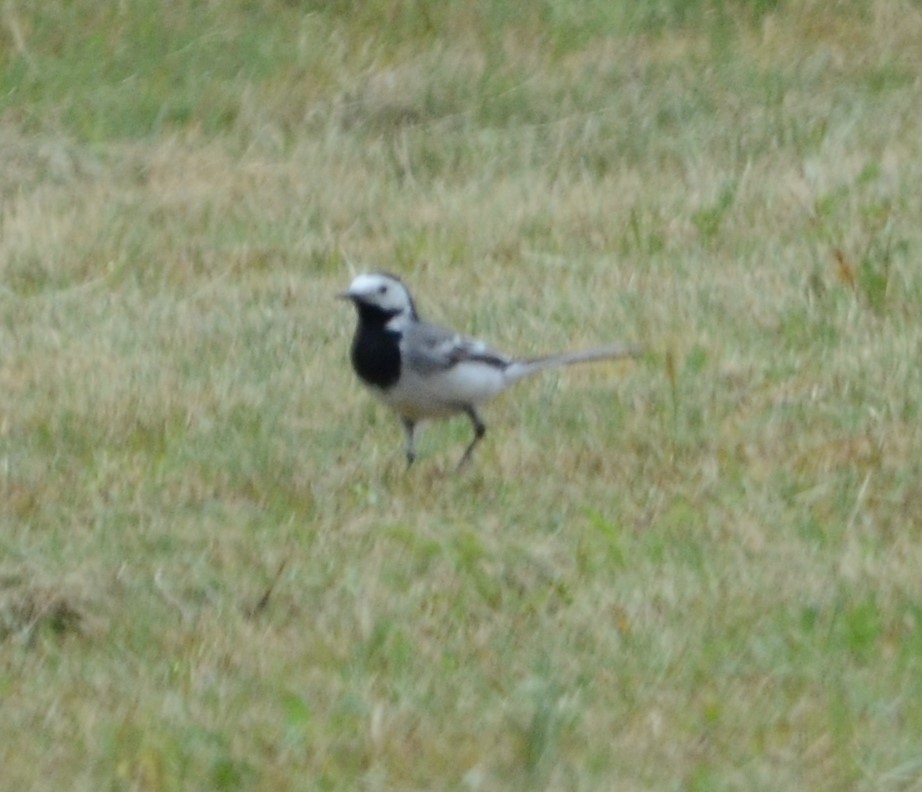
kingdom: Animalia
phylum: Chordata
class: Aves
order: Passeriformes
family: Motacillidae
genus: Motacilla
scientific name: Motacilla alba
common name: White wagtail
